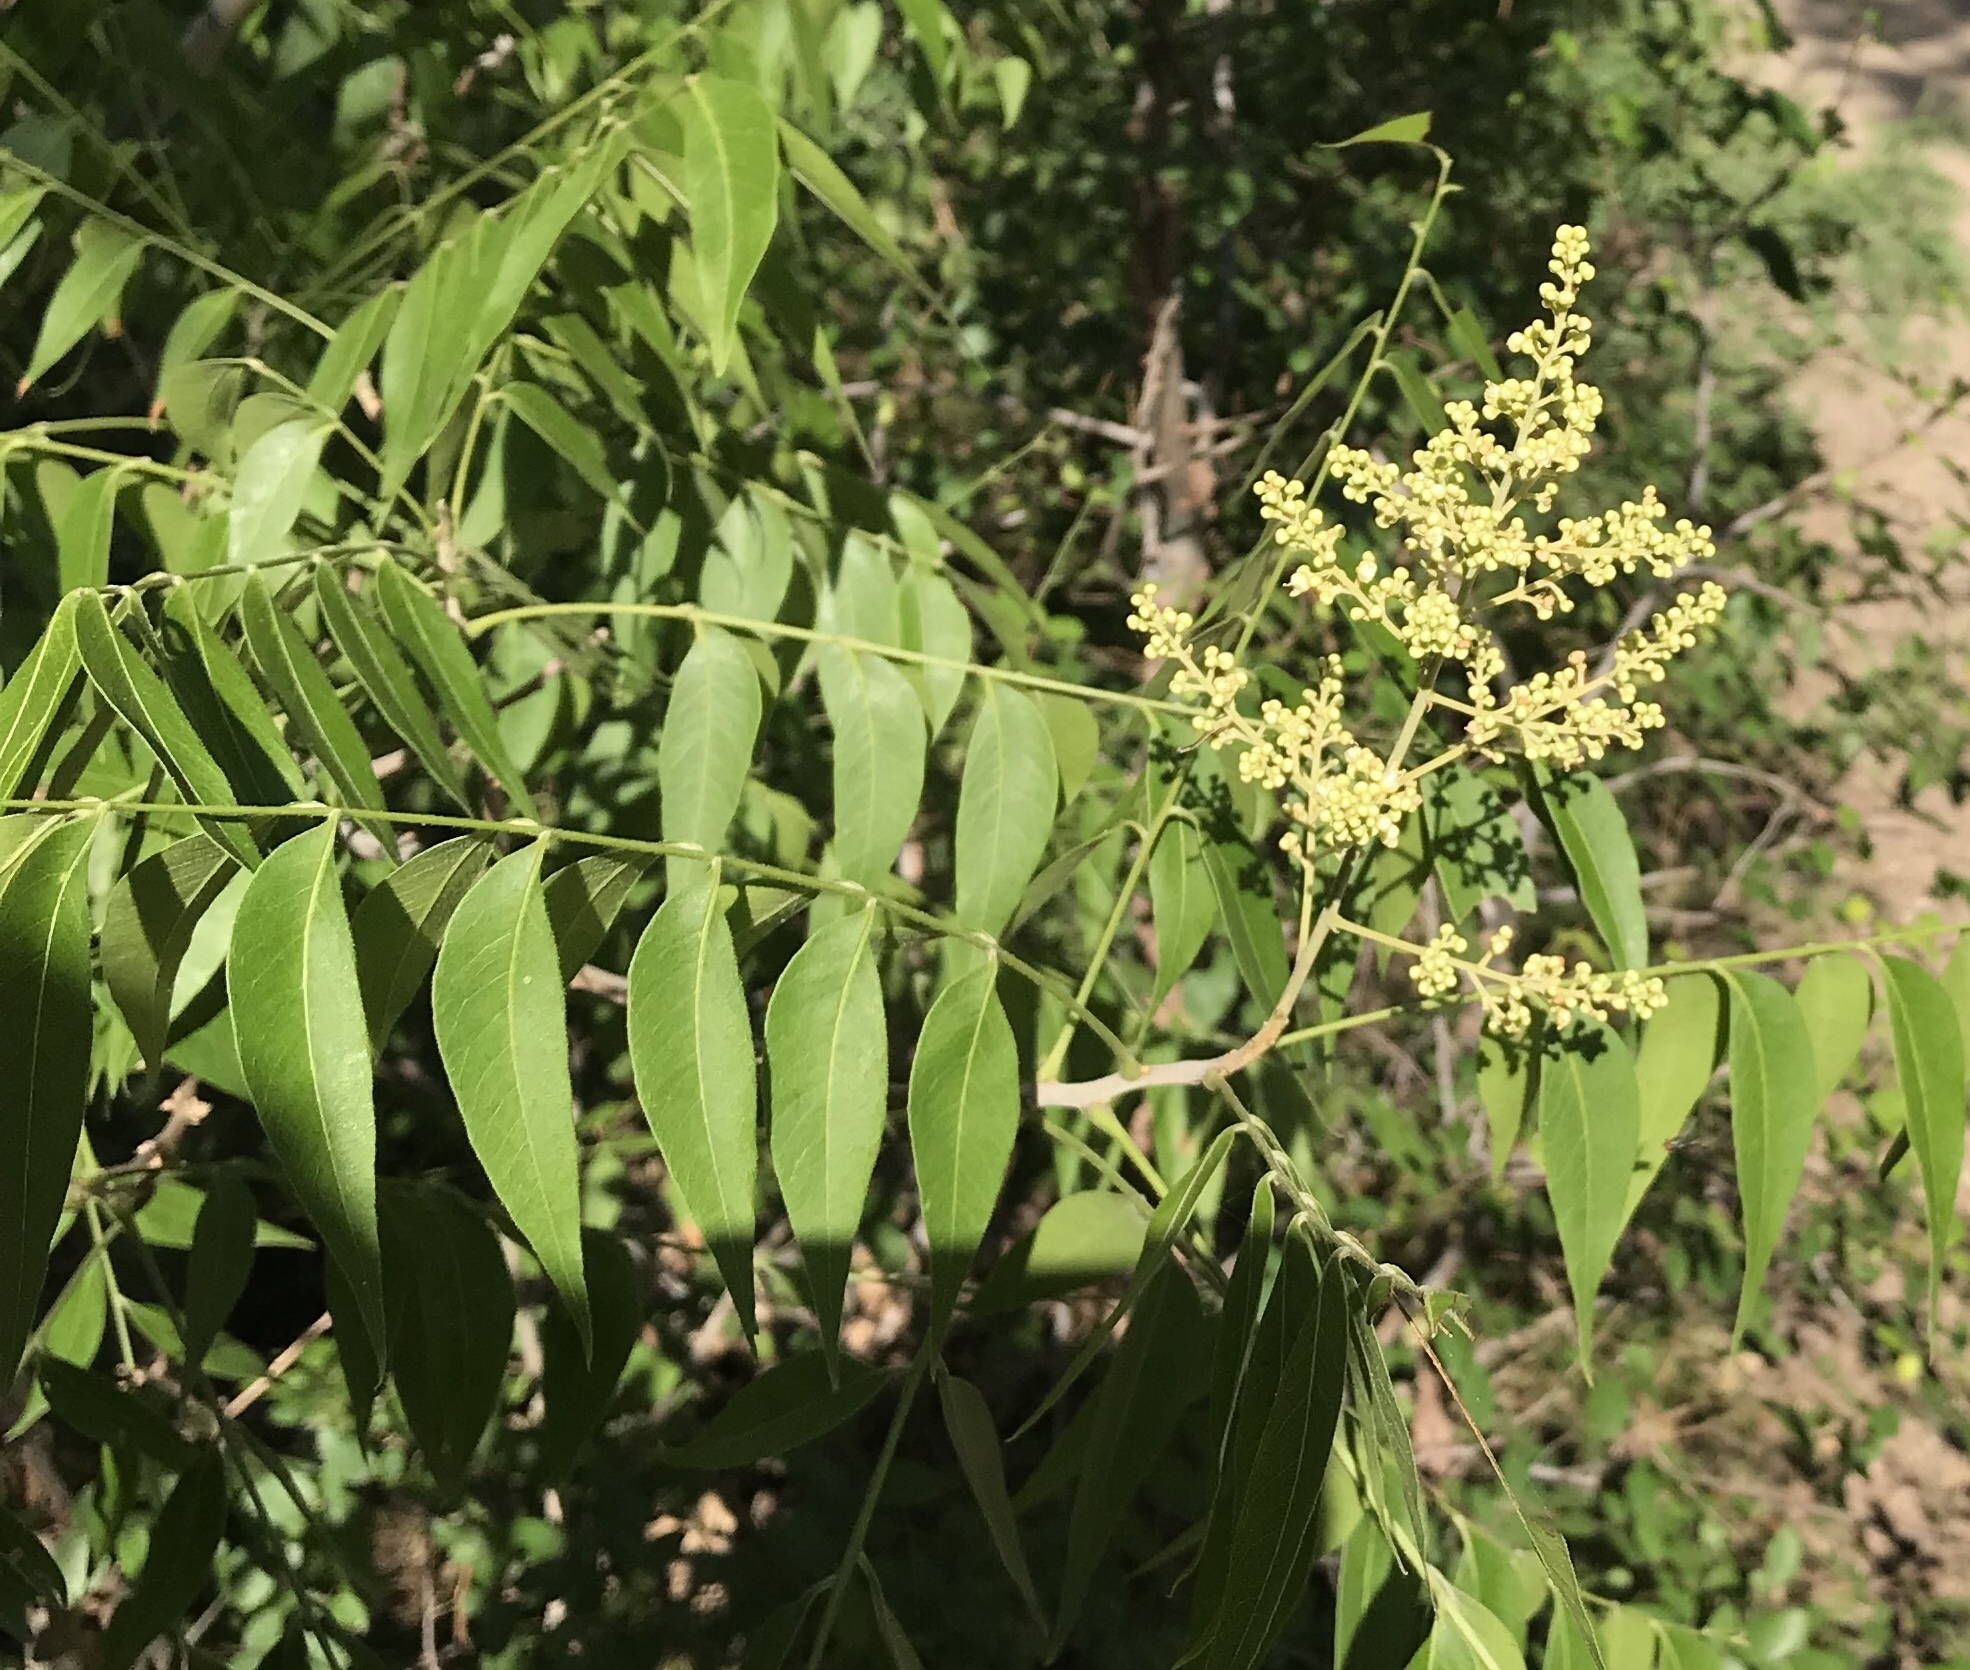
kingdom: Plantae
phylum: Tracheophyta
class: Magnoliopsida
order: Sapindales
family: Sapindaceae
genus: Sapindus
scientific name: Sapindus drummondii
